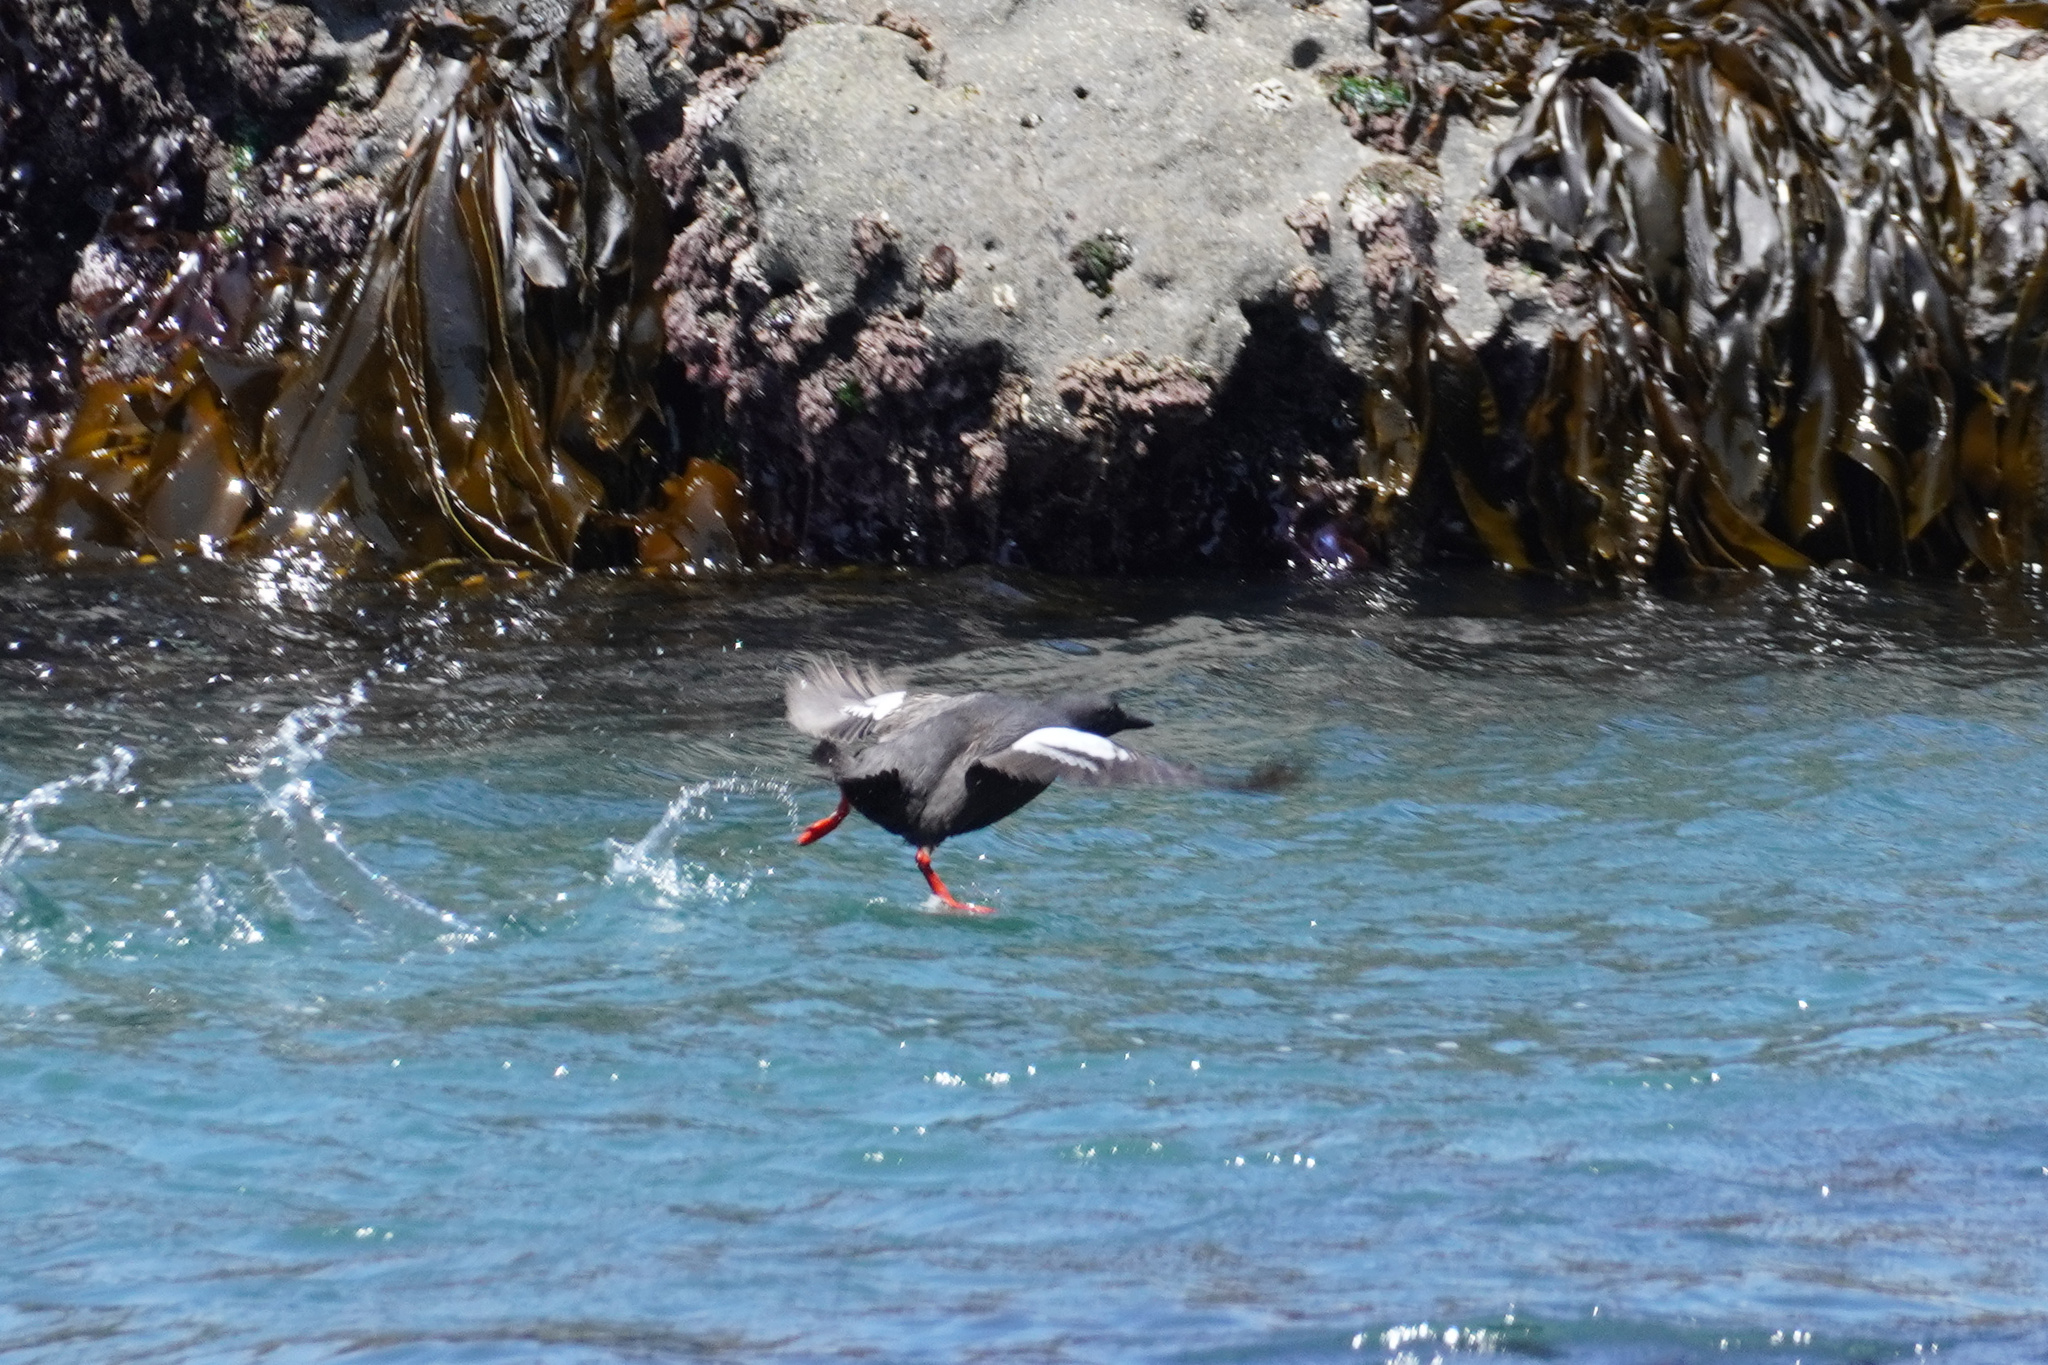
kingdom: Animalia
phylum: Chordata
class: Aves
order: Charadriiformes
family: Alcidae
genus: Cepphus
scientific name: Cepphus columba
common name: Pigeon guillemot
